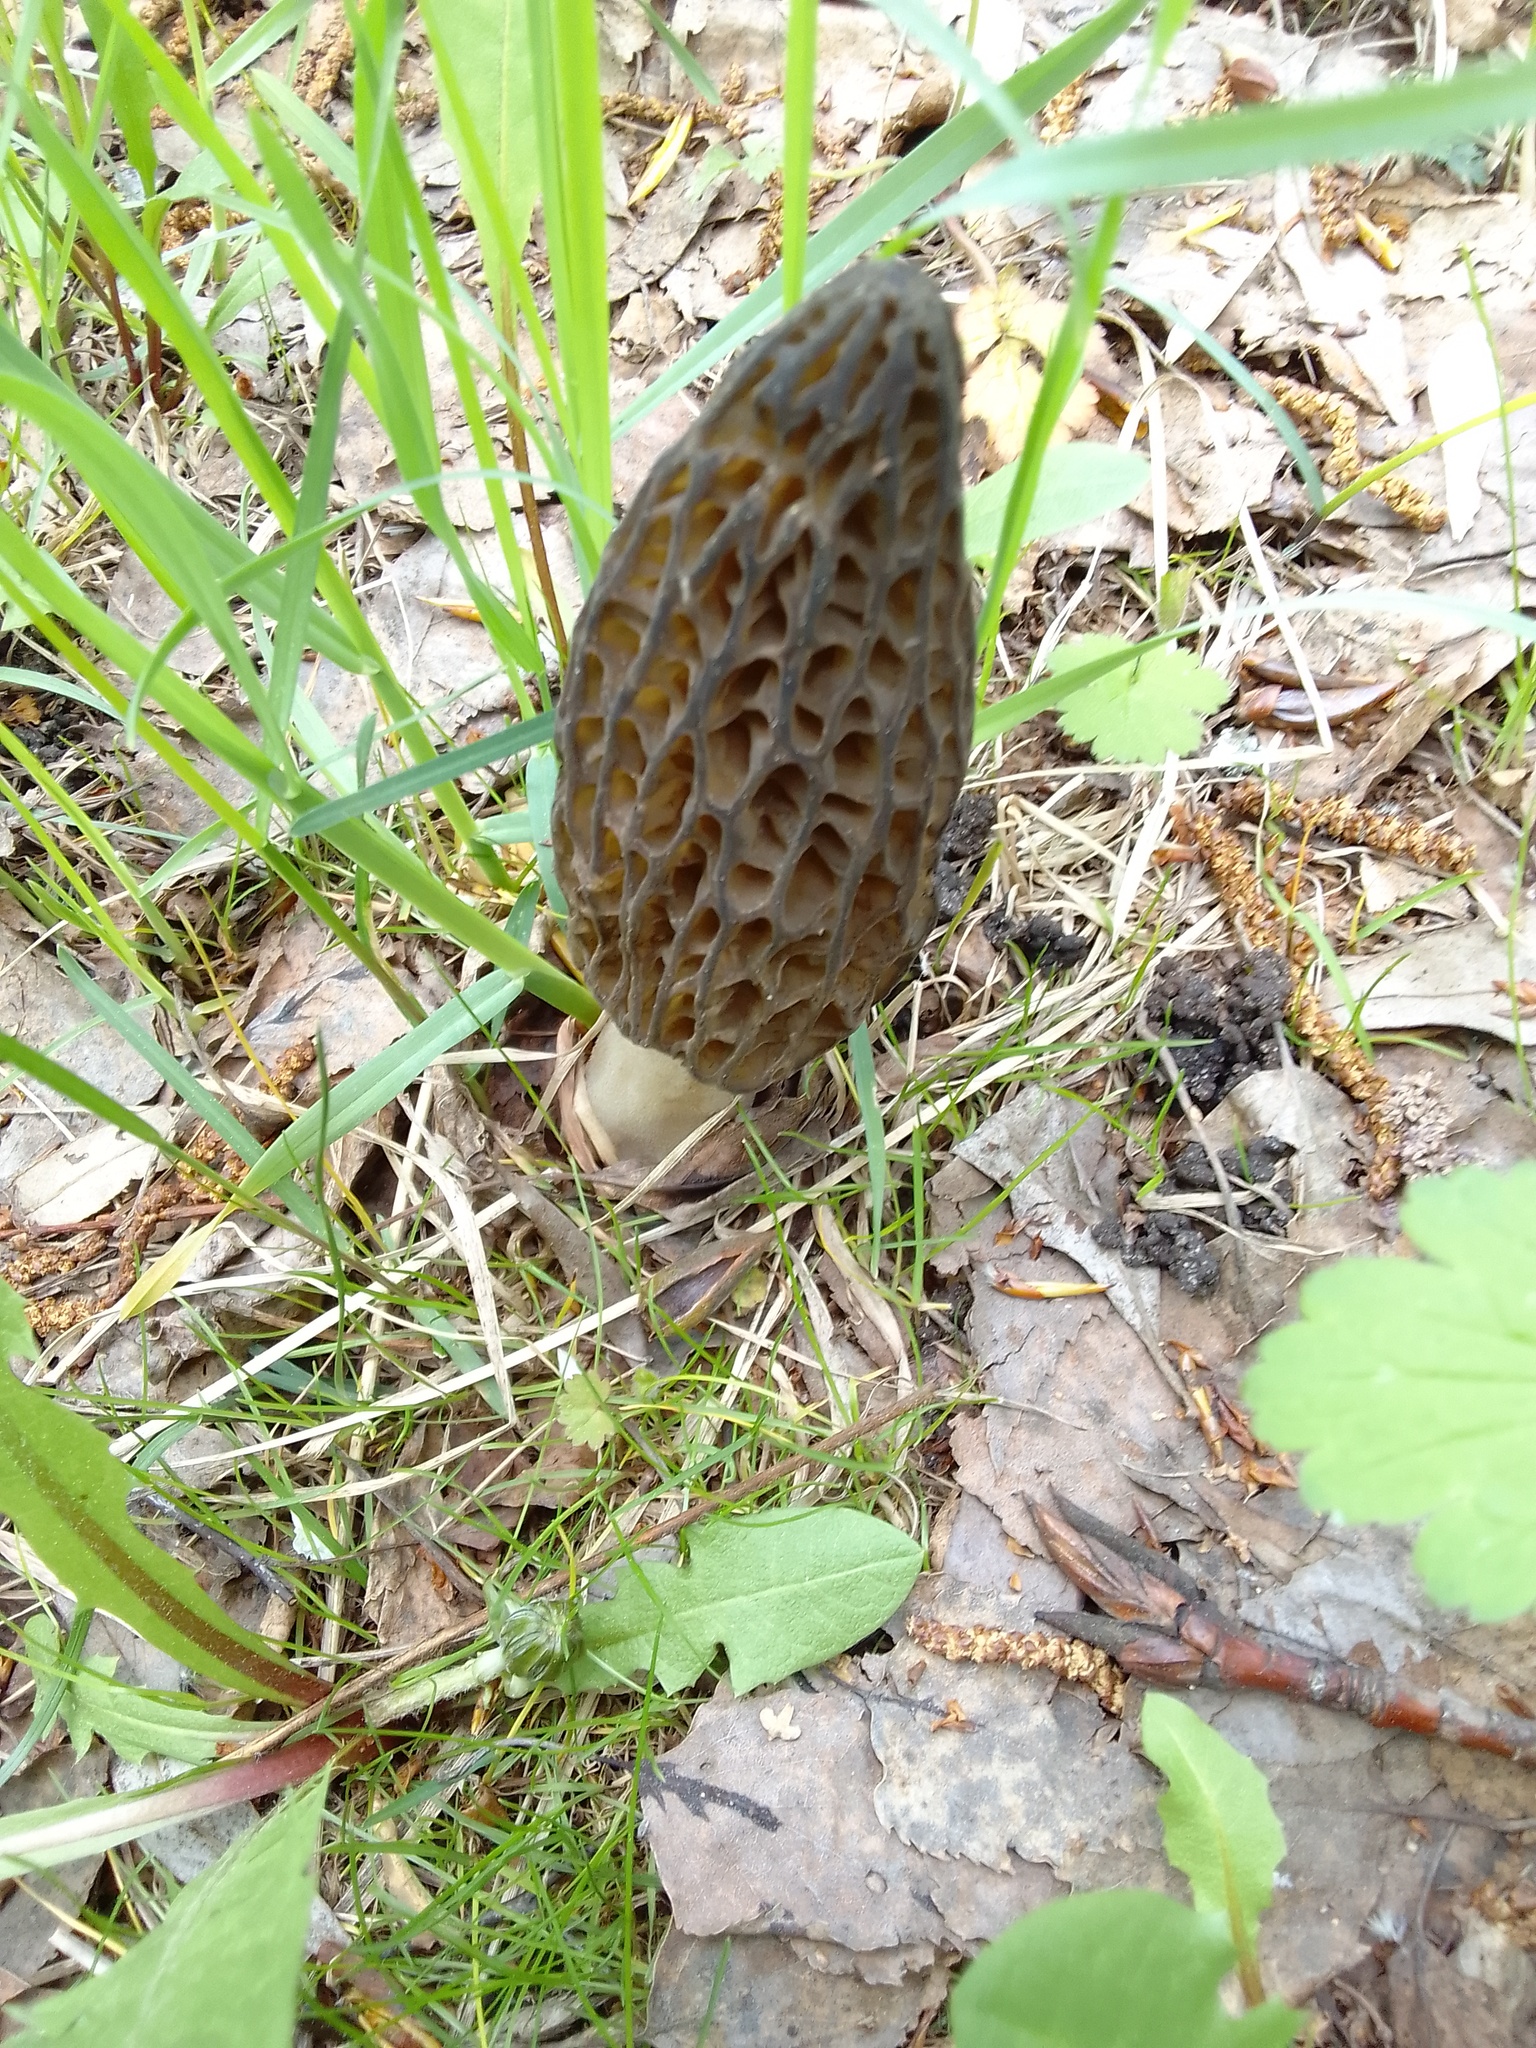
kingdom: Fungi
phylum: Ascomycota
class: Pezizomycetes
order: Pezizales
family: Morchellaceae
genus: Morchella
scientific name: Morchella
